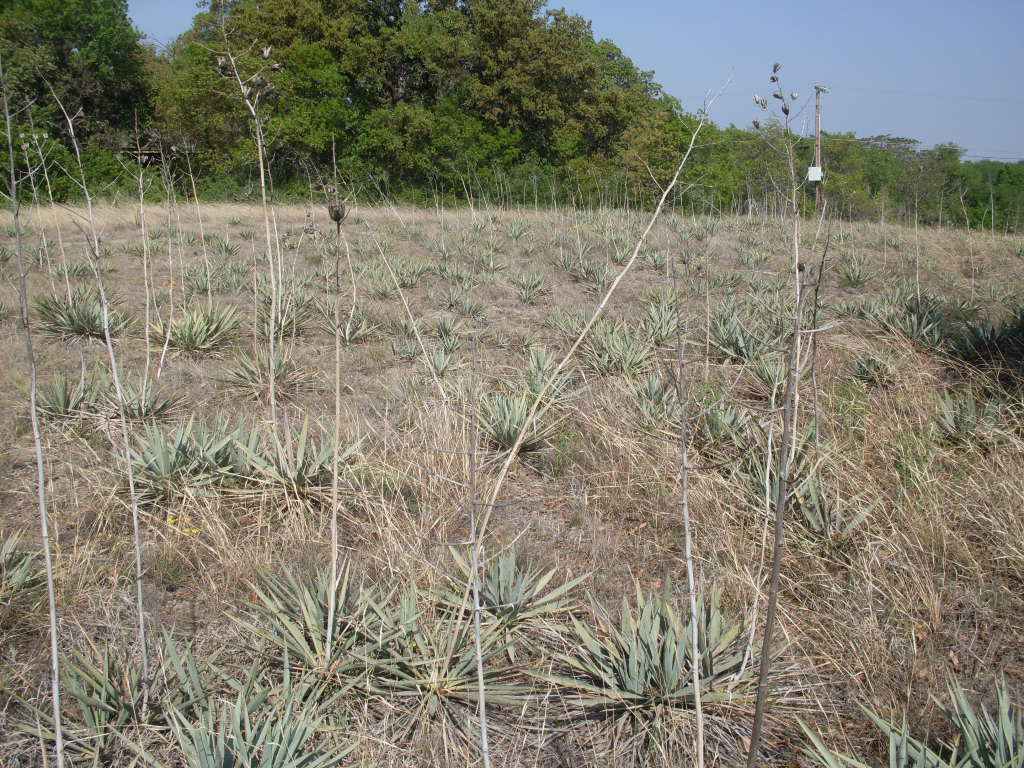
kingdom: Plantae
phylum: Tracheophyta
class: Liliopsida
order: Asparagales
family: Asparagaceae
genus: Yucca
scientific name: Yucca pallida
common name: Pale leaf yucca
